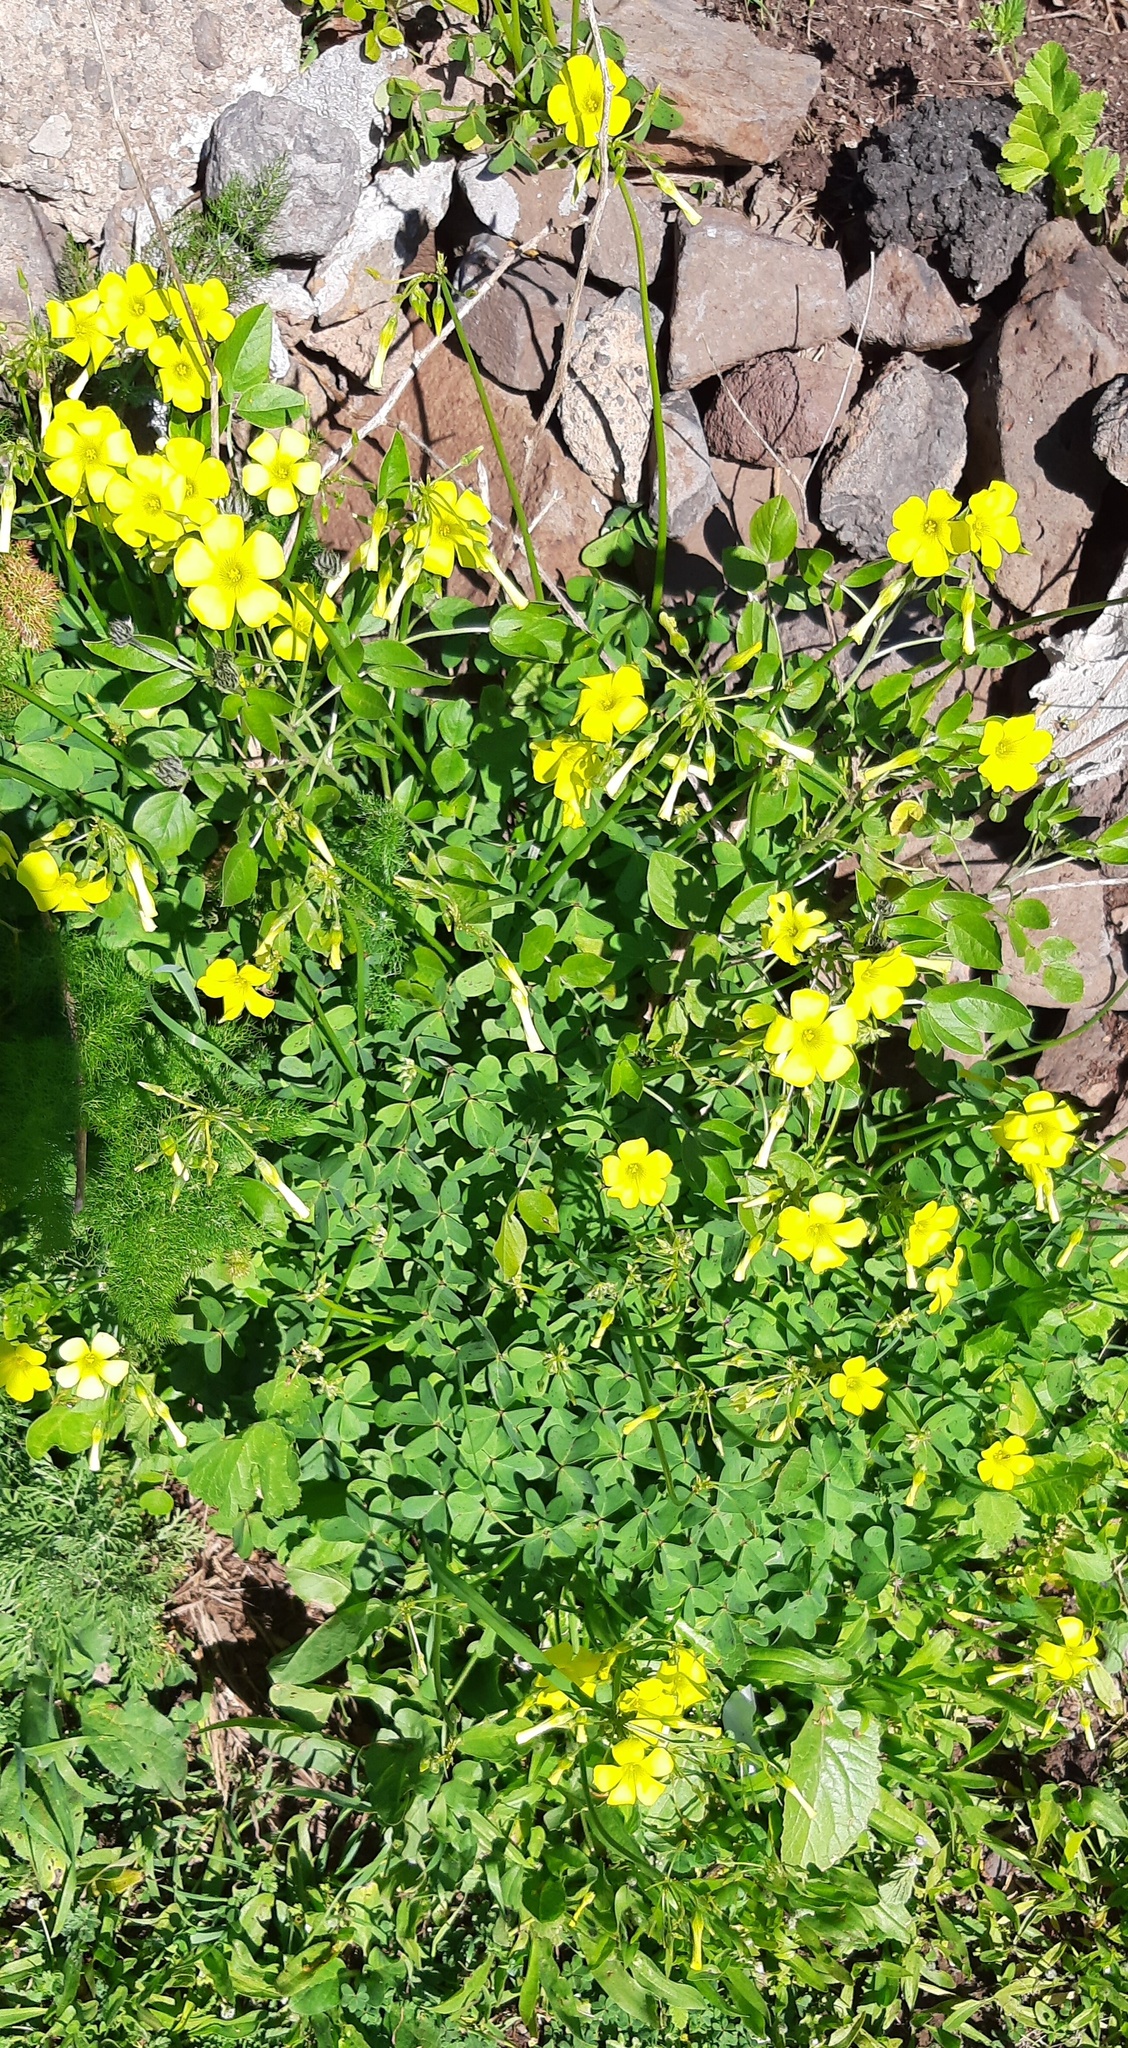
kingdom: Plantae
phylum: Tracheophyta
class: Magnoliopsida
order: Oxalidales
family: Oxalidaceae
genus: Oxalis
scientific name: Oxalis pes-caprae
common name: Bermuda-buttercup
